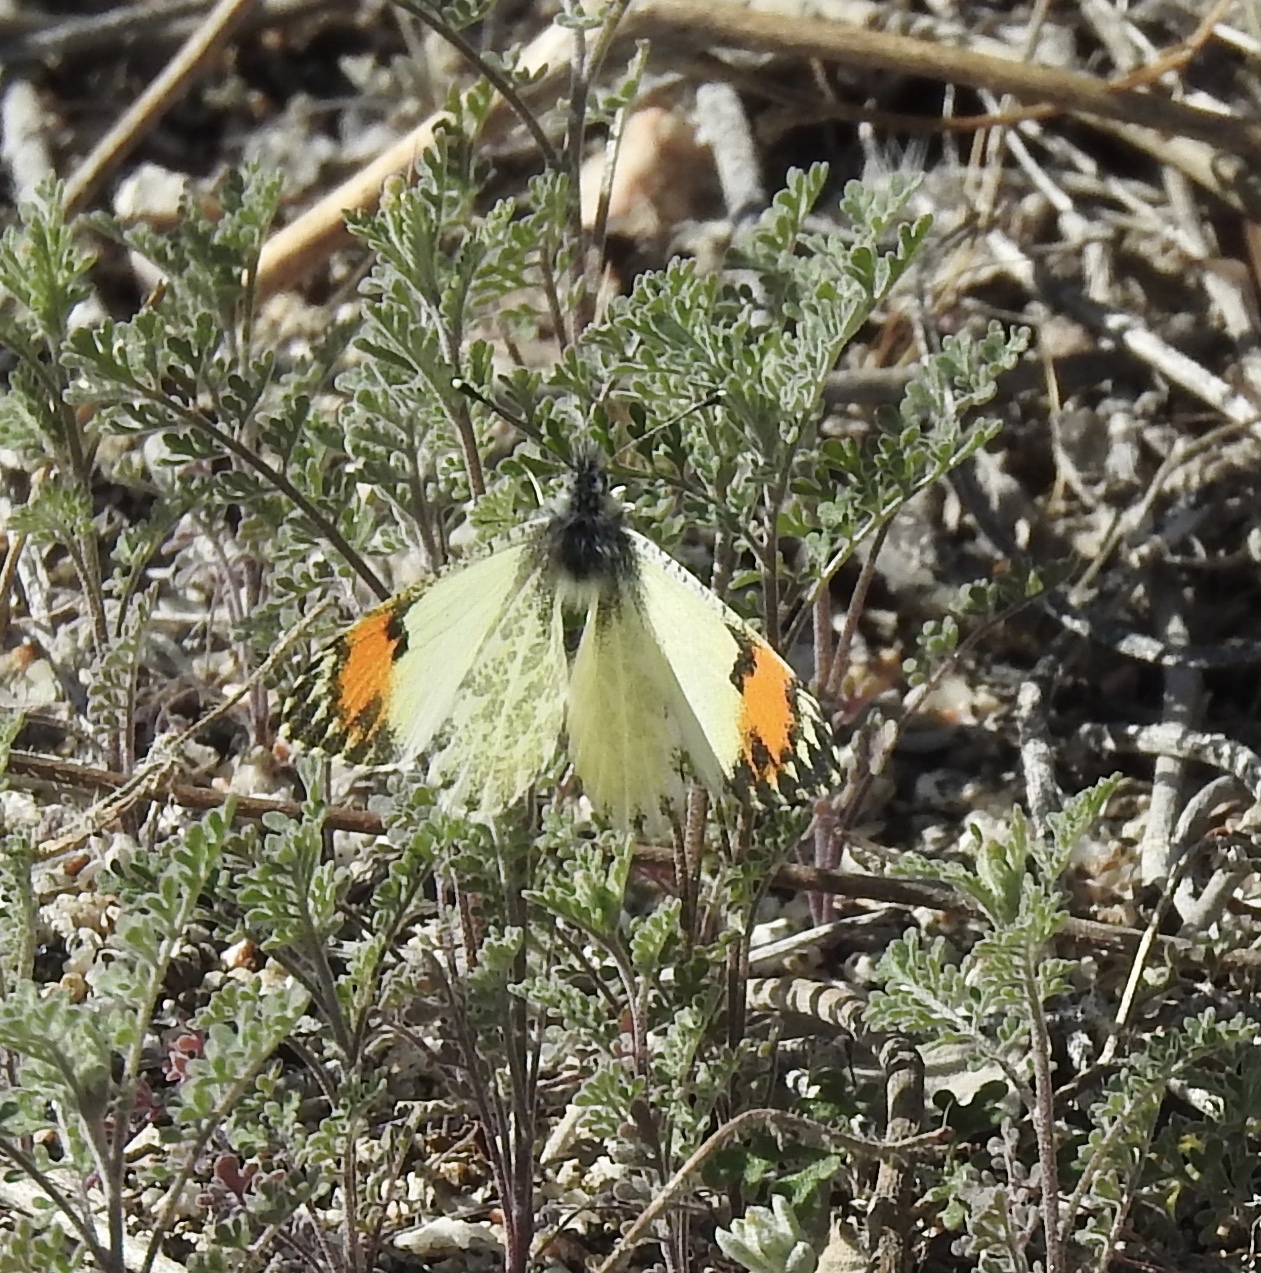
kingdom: Animalia
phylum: Arthropoda
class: Insecta
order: Lepidoptera
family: Pieridae
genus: Anthocharis
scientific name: Anthocharis sara
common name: Sara's orangetip
